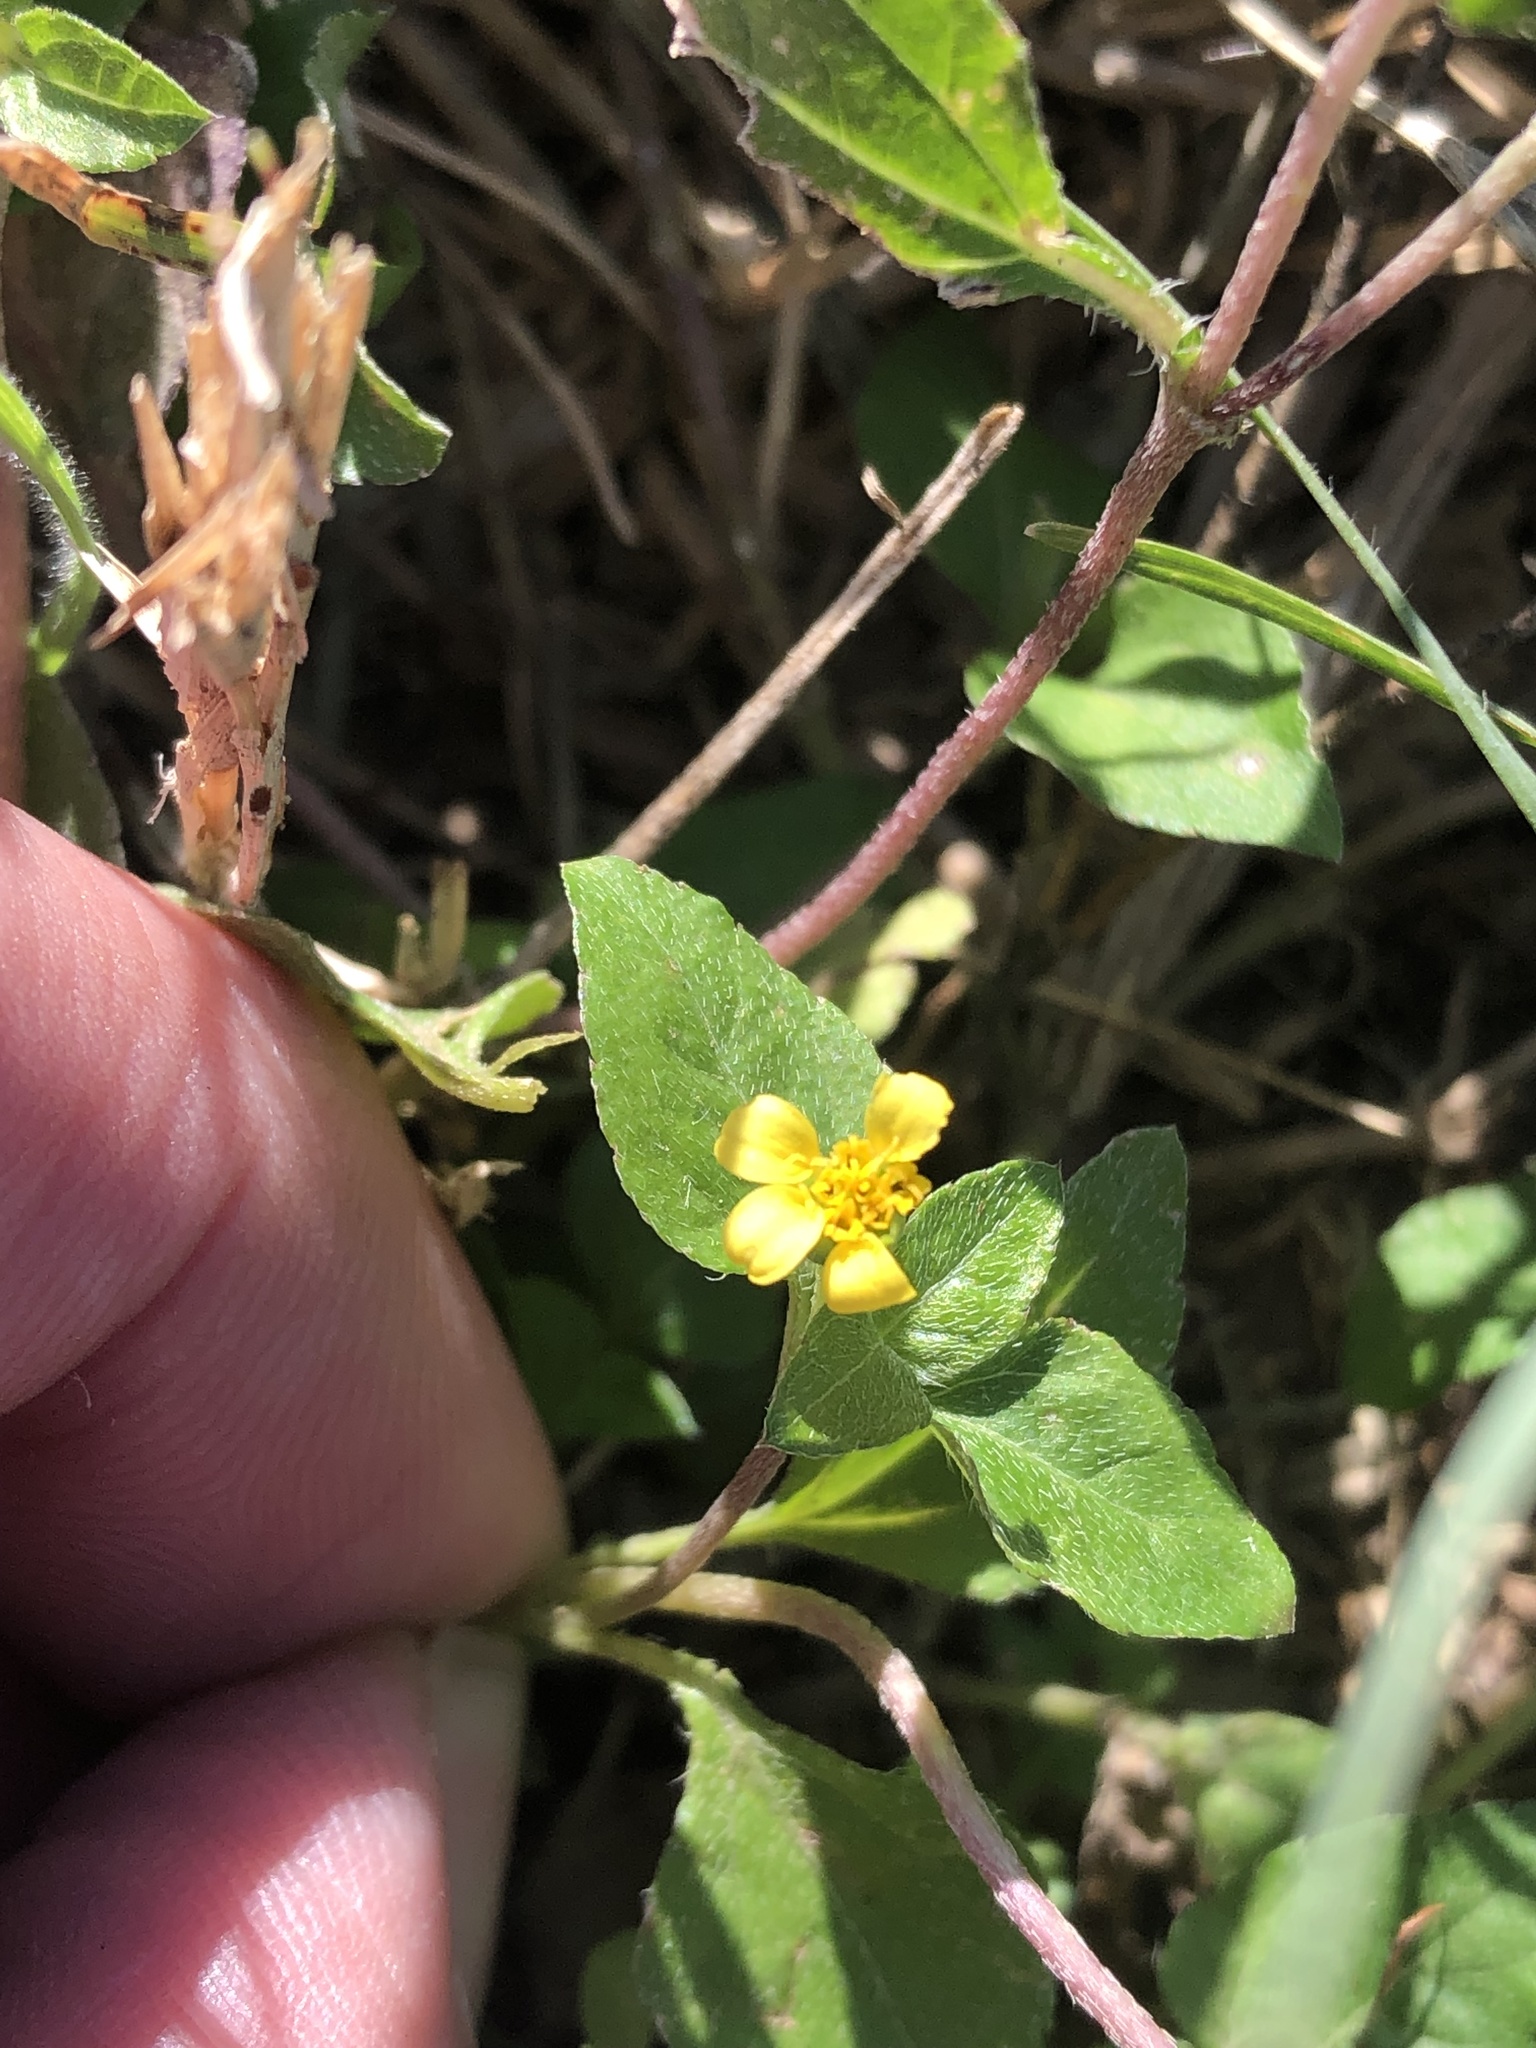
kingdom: Plantae
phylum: Tracheophyta
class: Magnoliopsida
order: Asterales
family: Asteraceae
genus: Calyptocarpus
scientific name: Calyptocarpus vialis
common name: Straggler daisy
